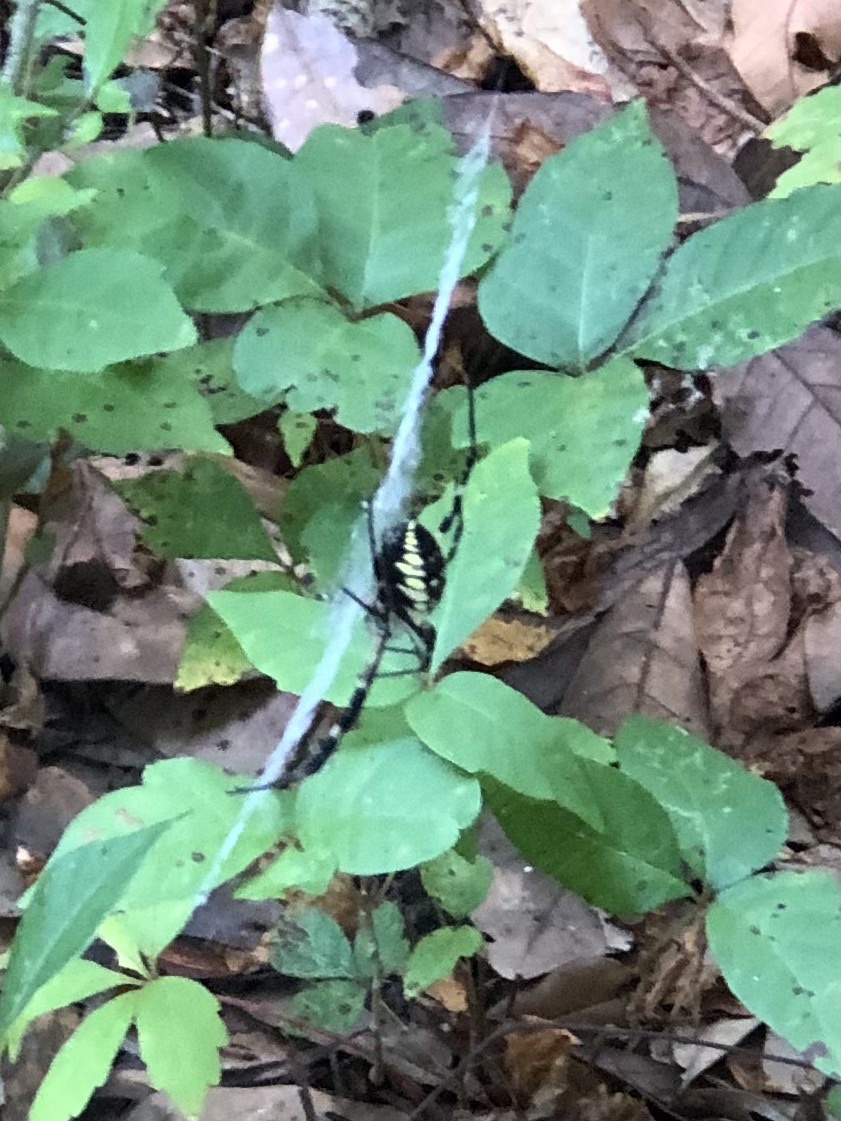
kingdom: Animalia
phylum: Arthropoda
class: Arachnida
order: Araneae
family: Araneidae
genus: Argiope
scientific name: Argiope aurantia
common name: Orb weavers
